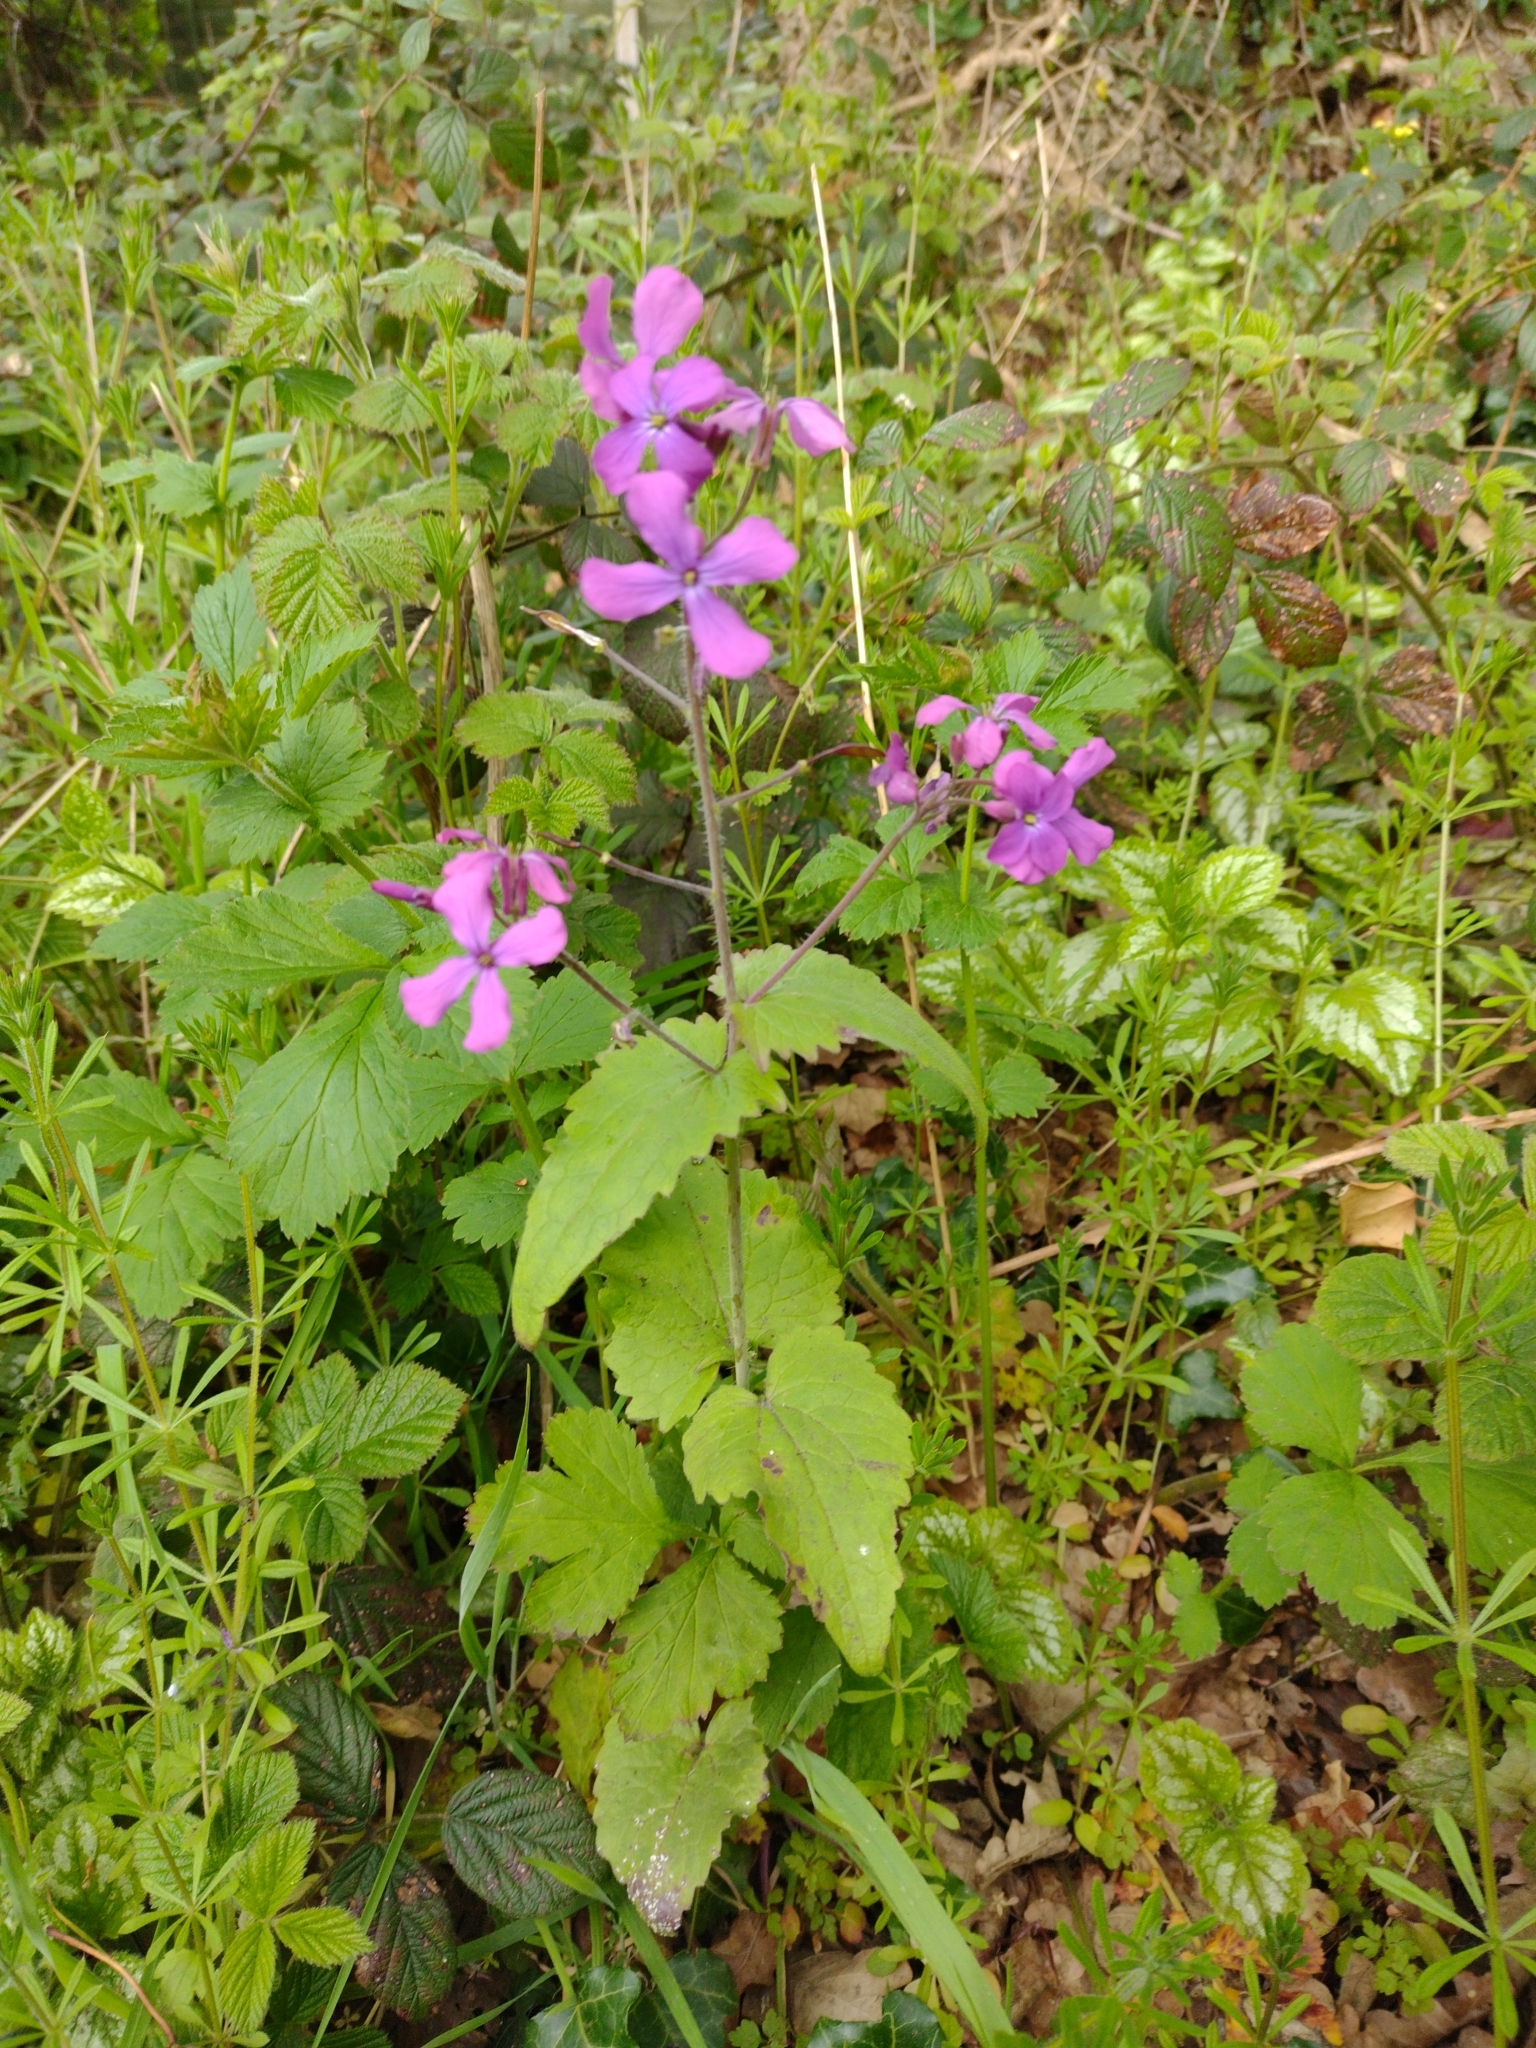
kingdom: Plantae
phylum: Tracheophyta
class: Magnoliopsida
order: Brassicales
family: Brassicaceae
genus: Lunaria
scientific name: Lunaria annua
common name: Honesty
